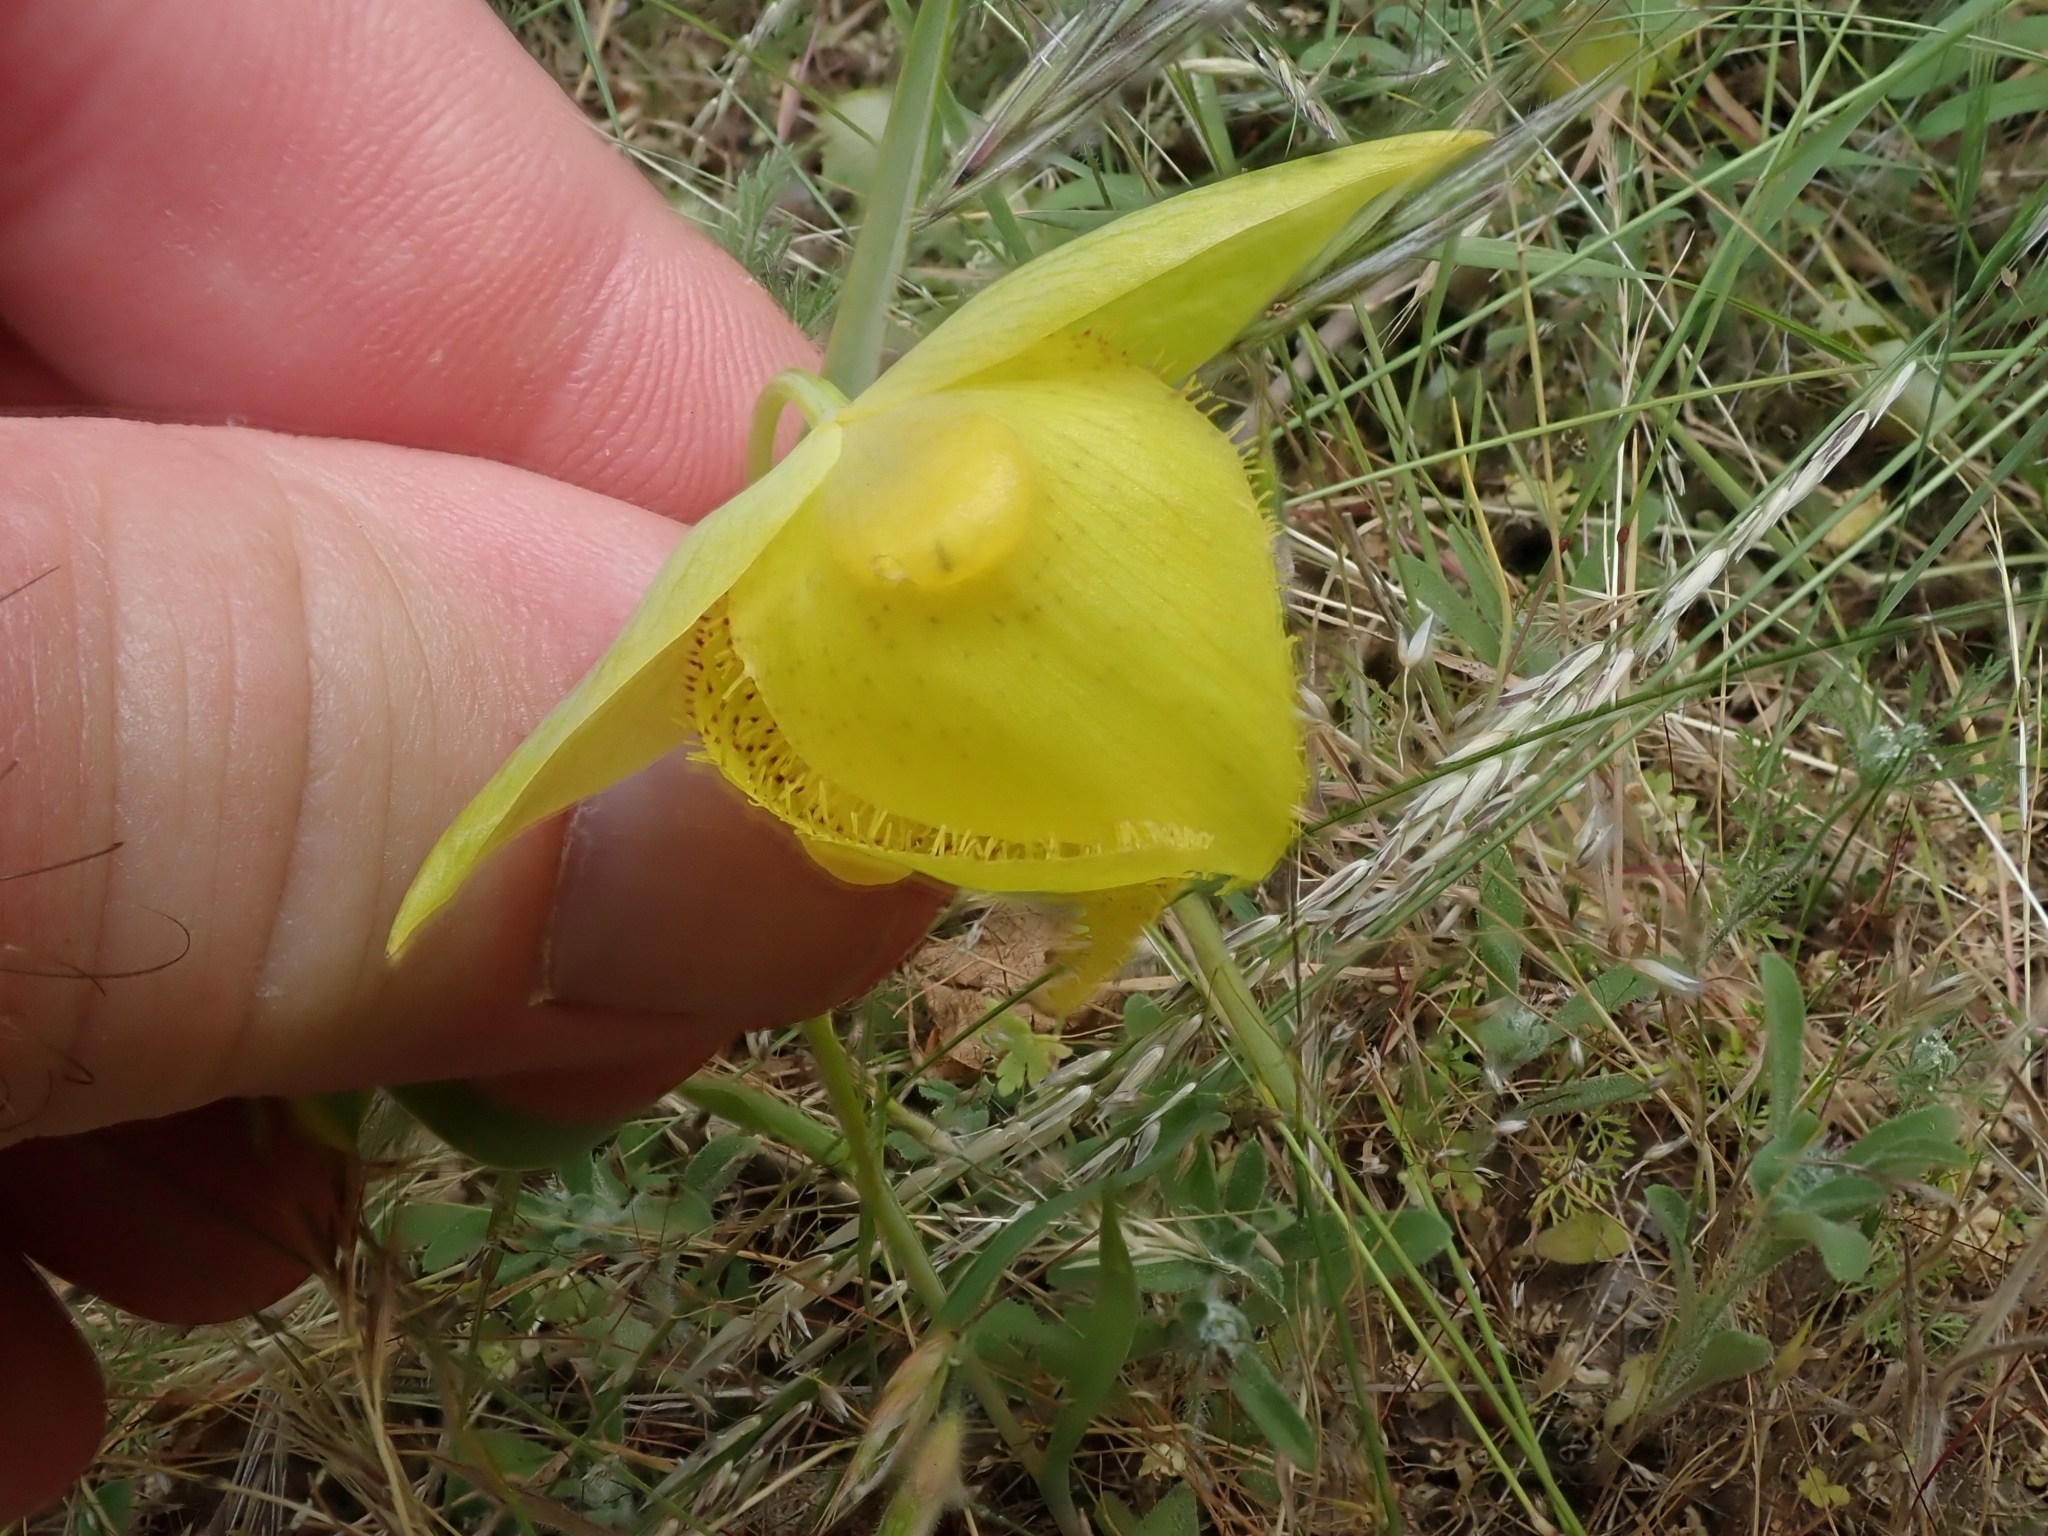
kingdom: Plantae
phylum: Tracheophyta
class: Liliopsida
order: Liliales
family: Liliaceae
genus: Calochortus
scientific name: Calochortus pulchellus
